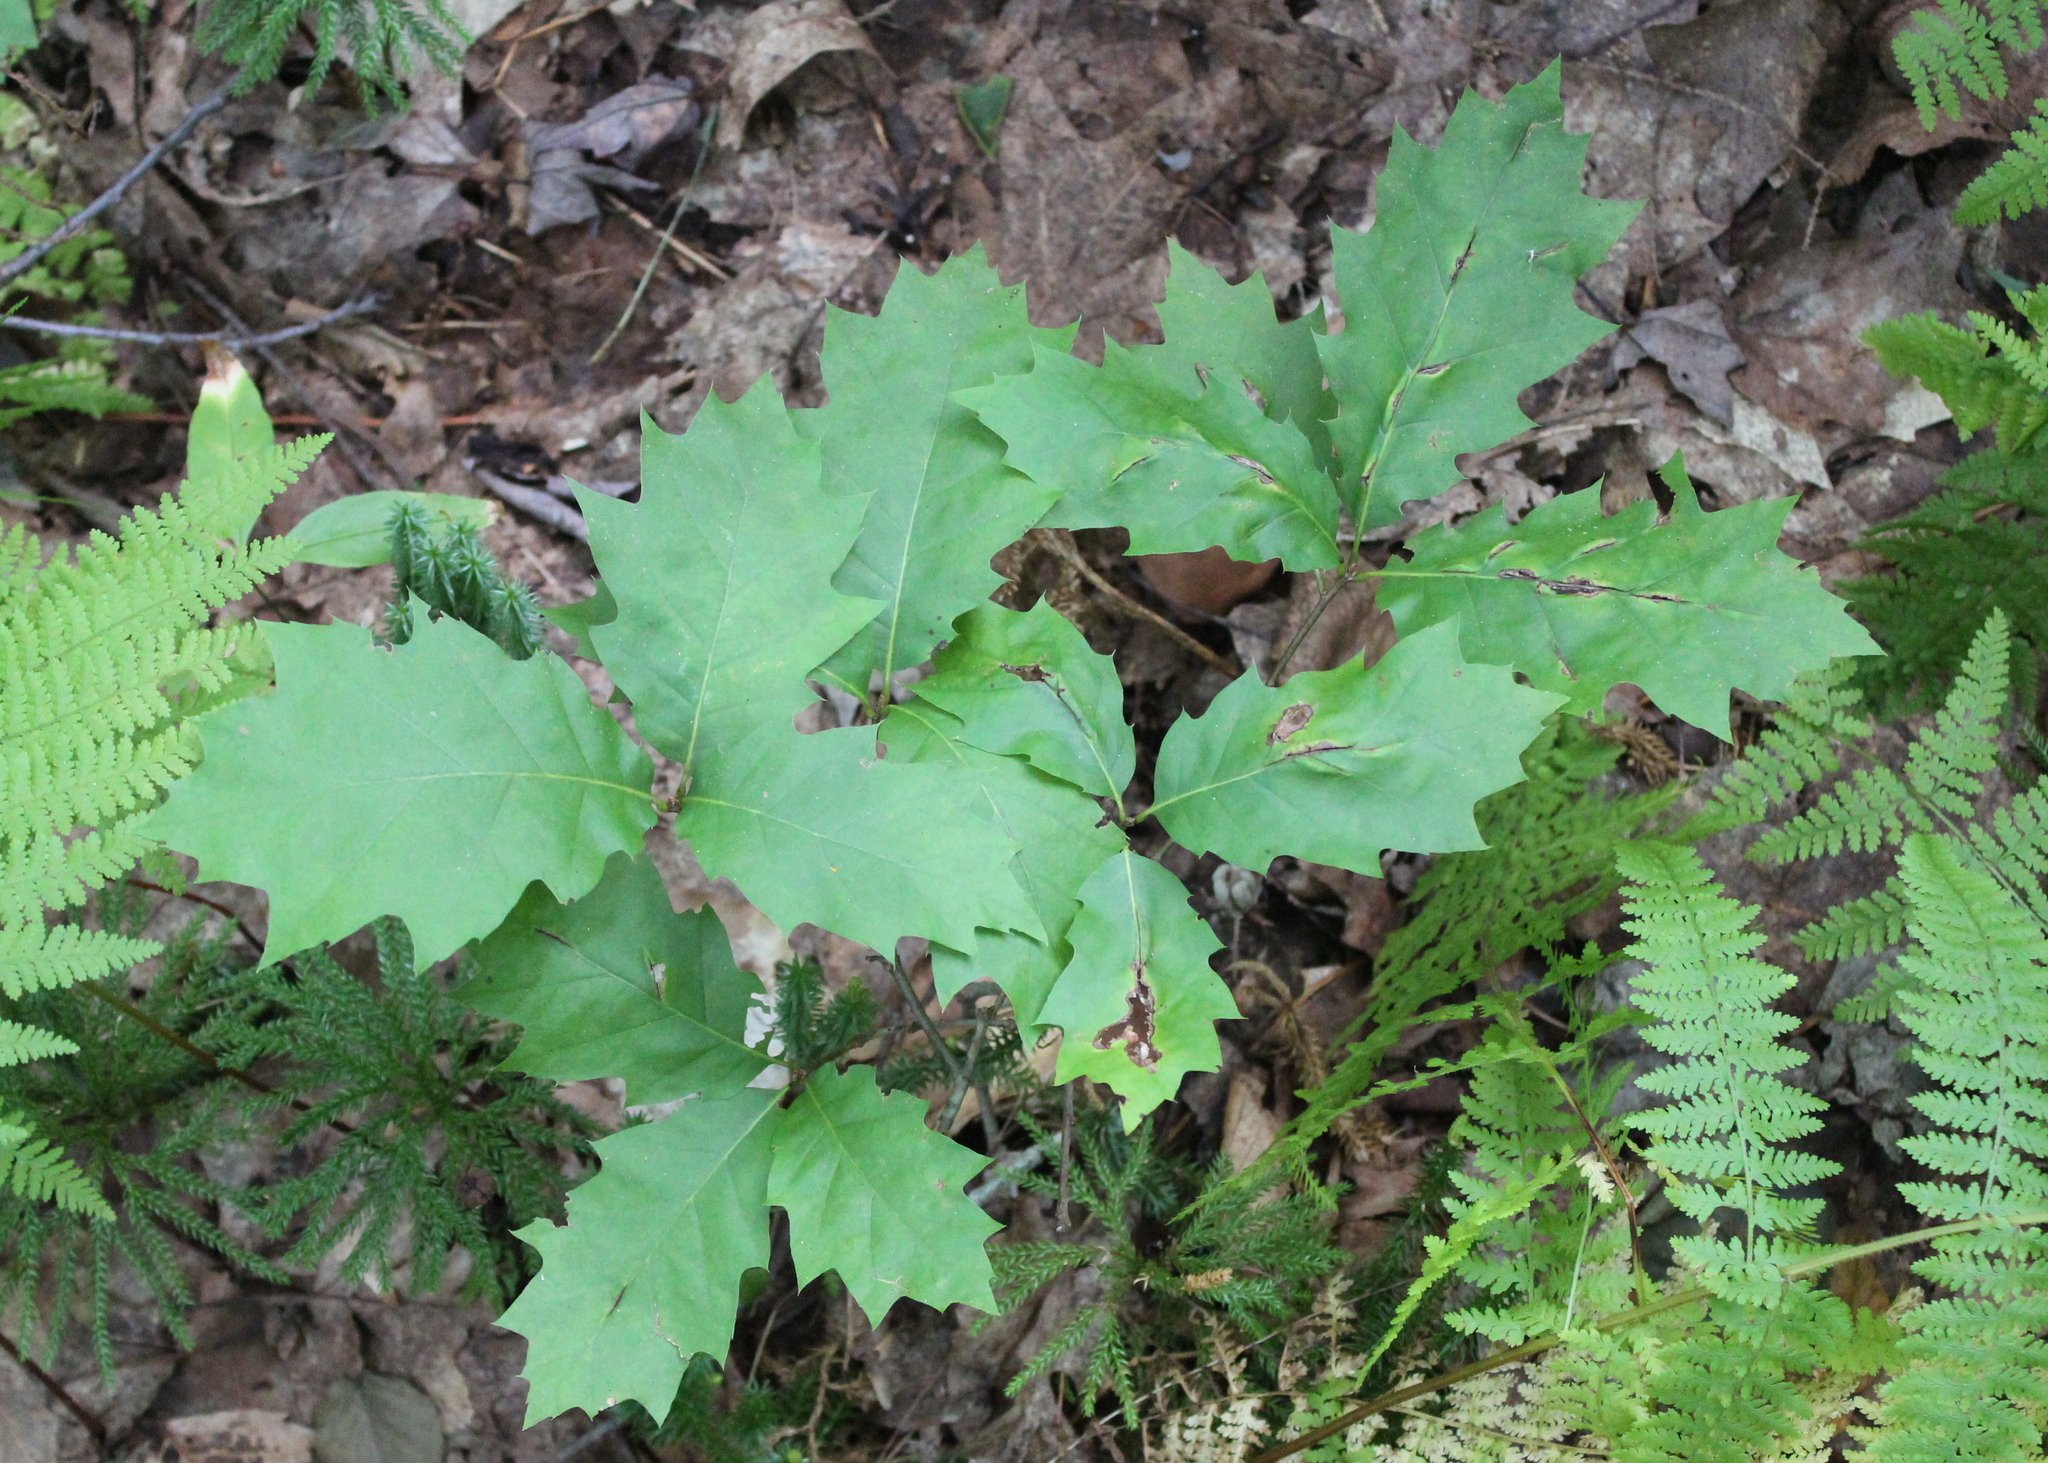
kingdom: Plantae
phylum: Tracheophyta
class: Magnoliopsida
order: Fagales
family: Fagaceae
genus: Quercus
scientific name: Quercus rubra
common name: Red oak
